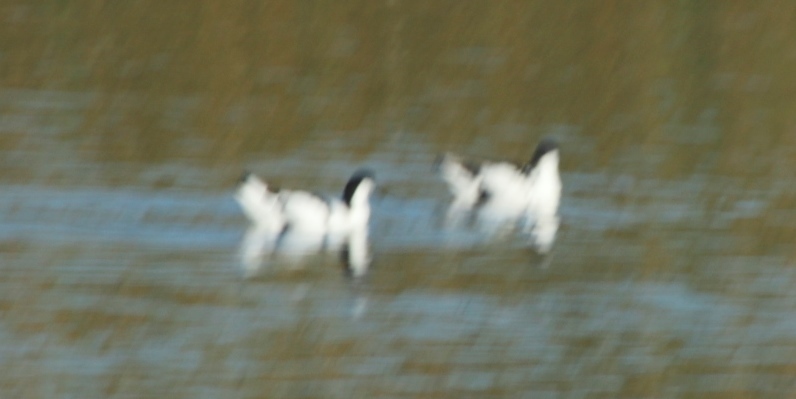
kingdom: Animalia
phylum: Chordata
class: Aves
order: Charadriiformes
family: Recurvirostridae
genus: Recurvirostra
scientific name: Recurvirostra avosetta
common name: Pied avocet
